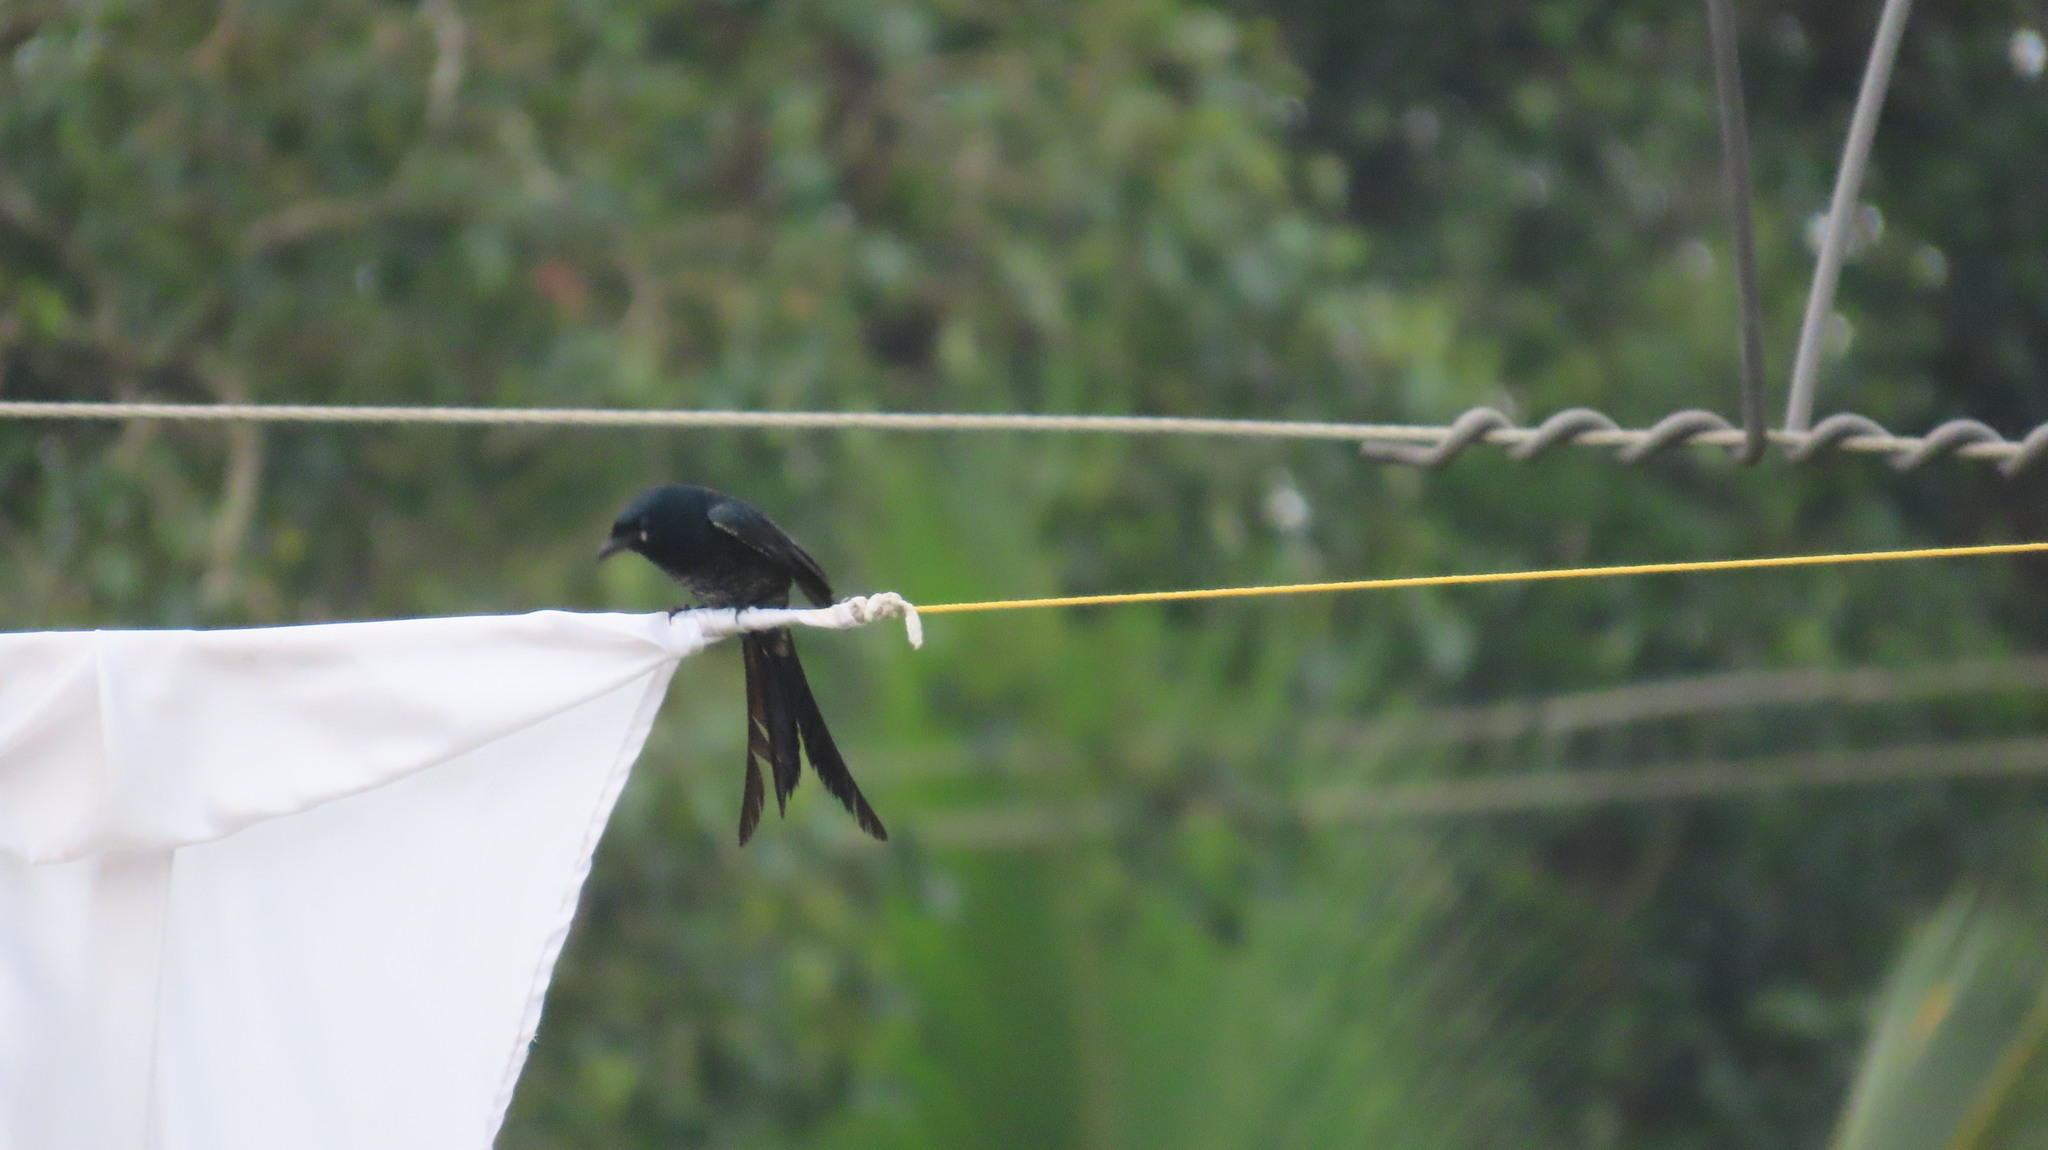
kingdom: Animalia
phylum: Chordata
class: Aves
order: Passeriformes
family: Dicruridae
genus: Dicrurus
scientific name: Dicrurus macrocercus
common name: Black drongo
